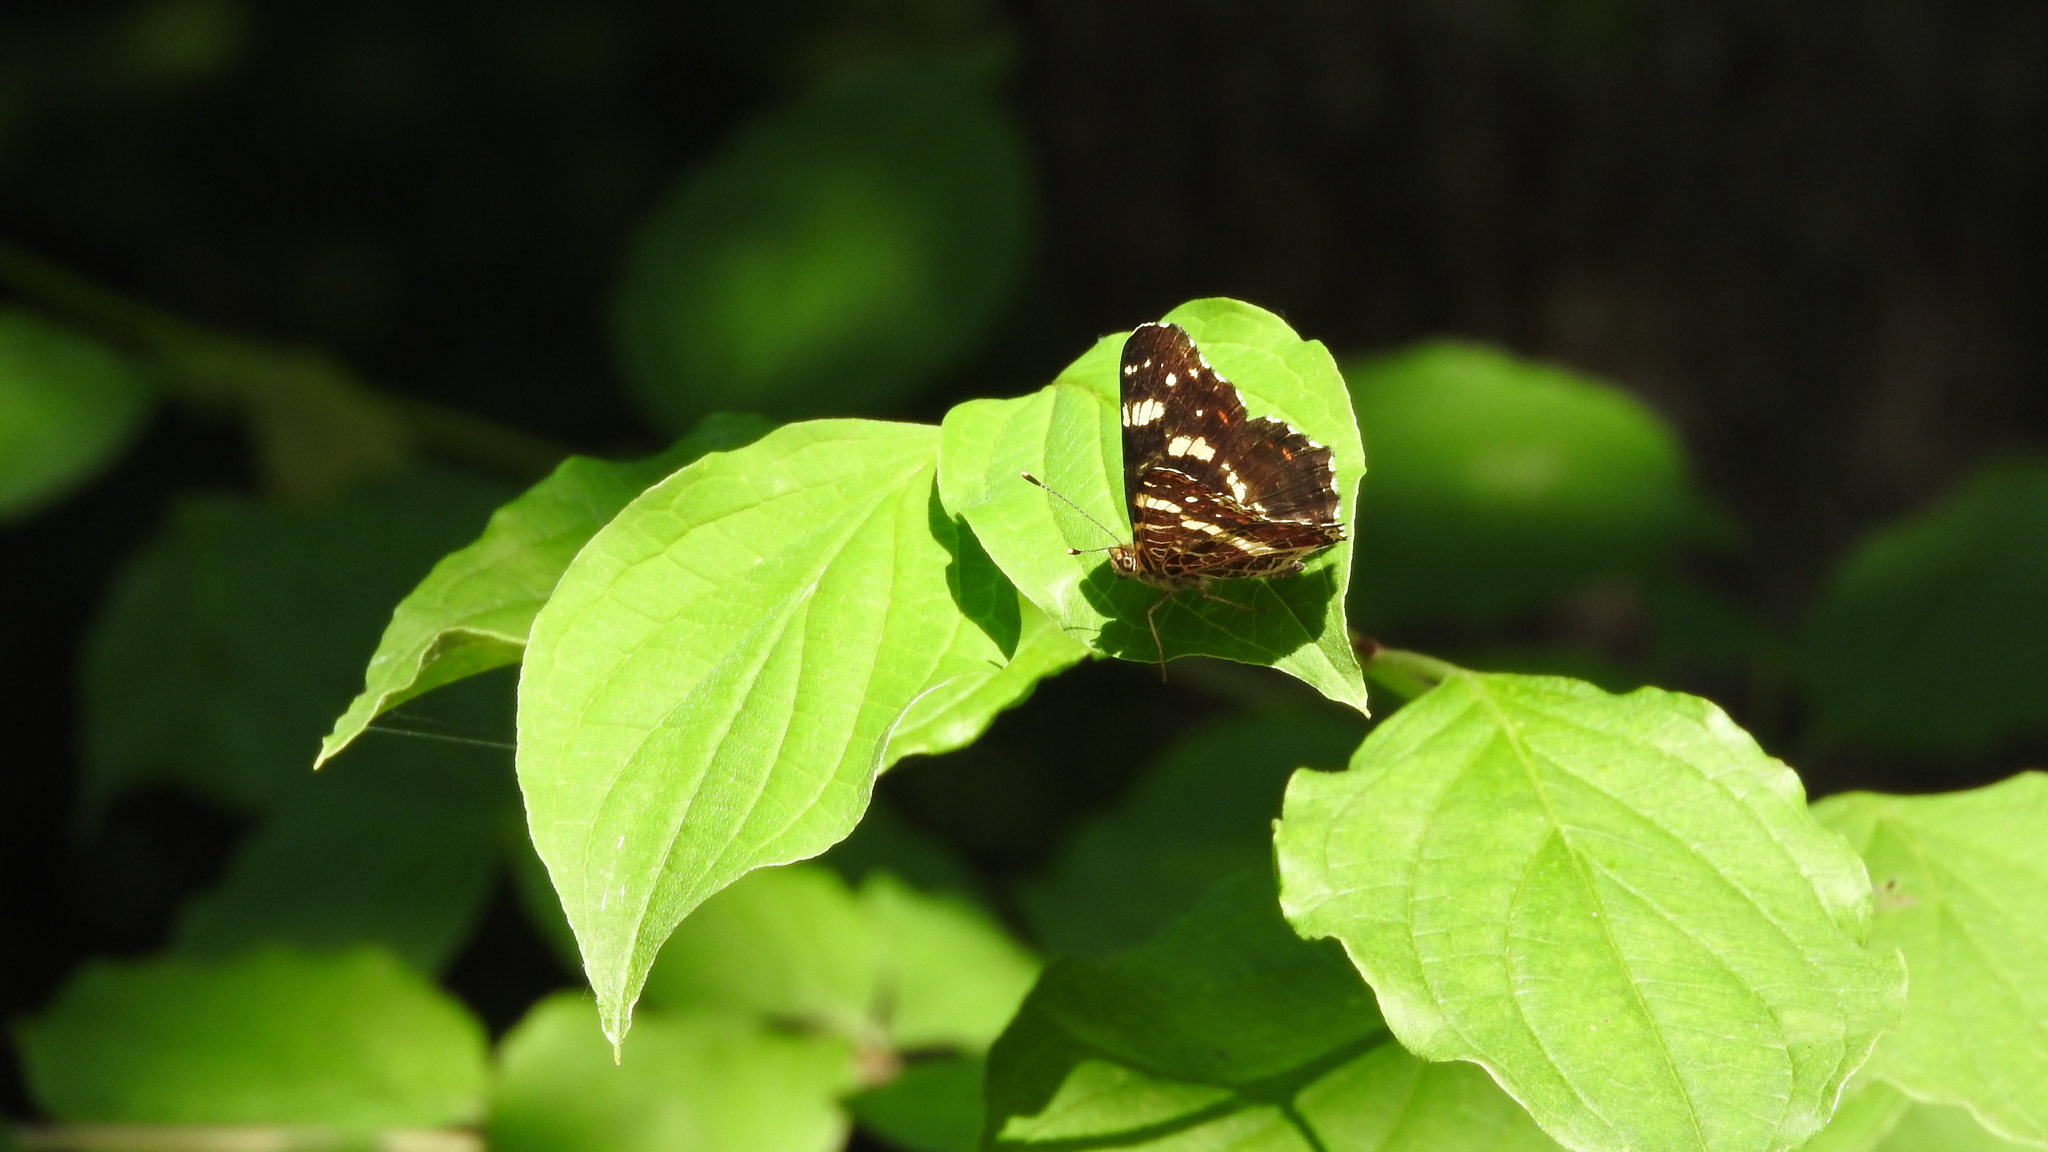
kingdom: Animalia
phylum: Arthropoda
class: Insecta
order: Lepidoptera
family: Nymphalidae
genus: Araschnia
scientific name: Araschnia levana
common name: Map butterfly
